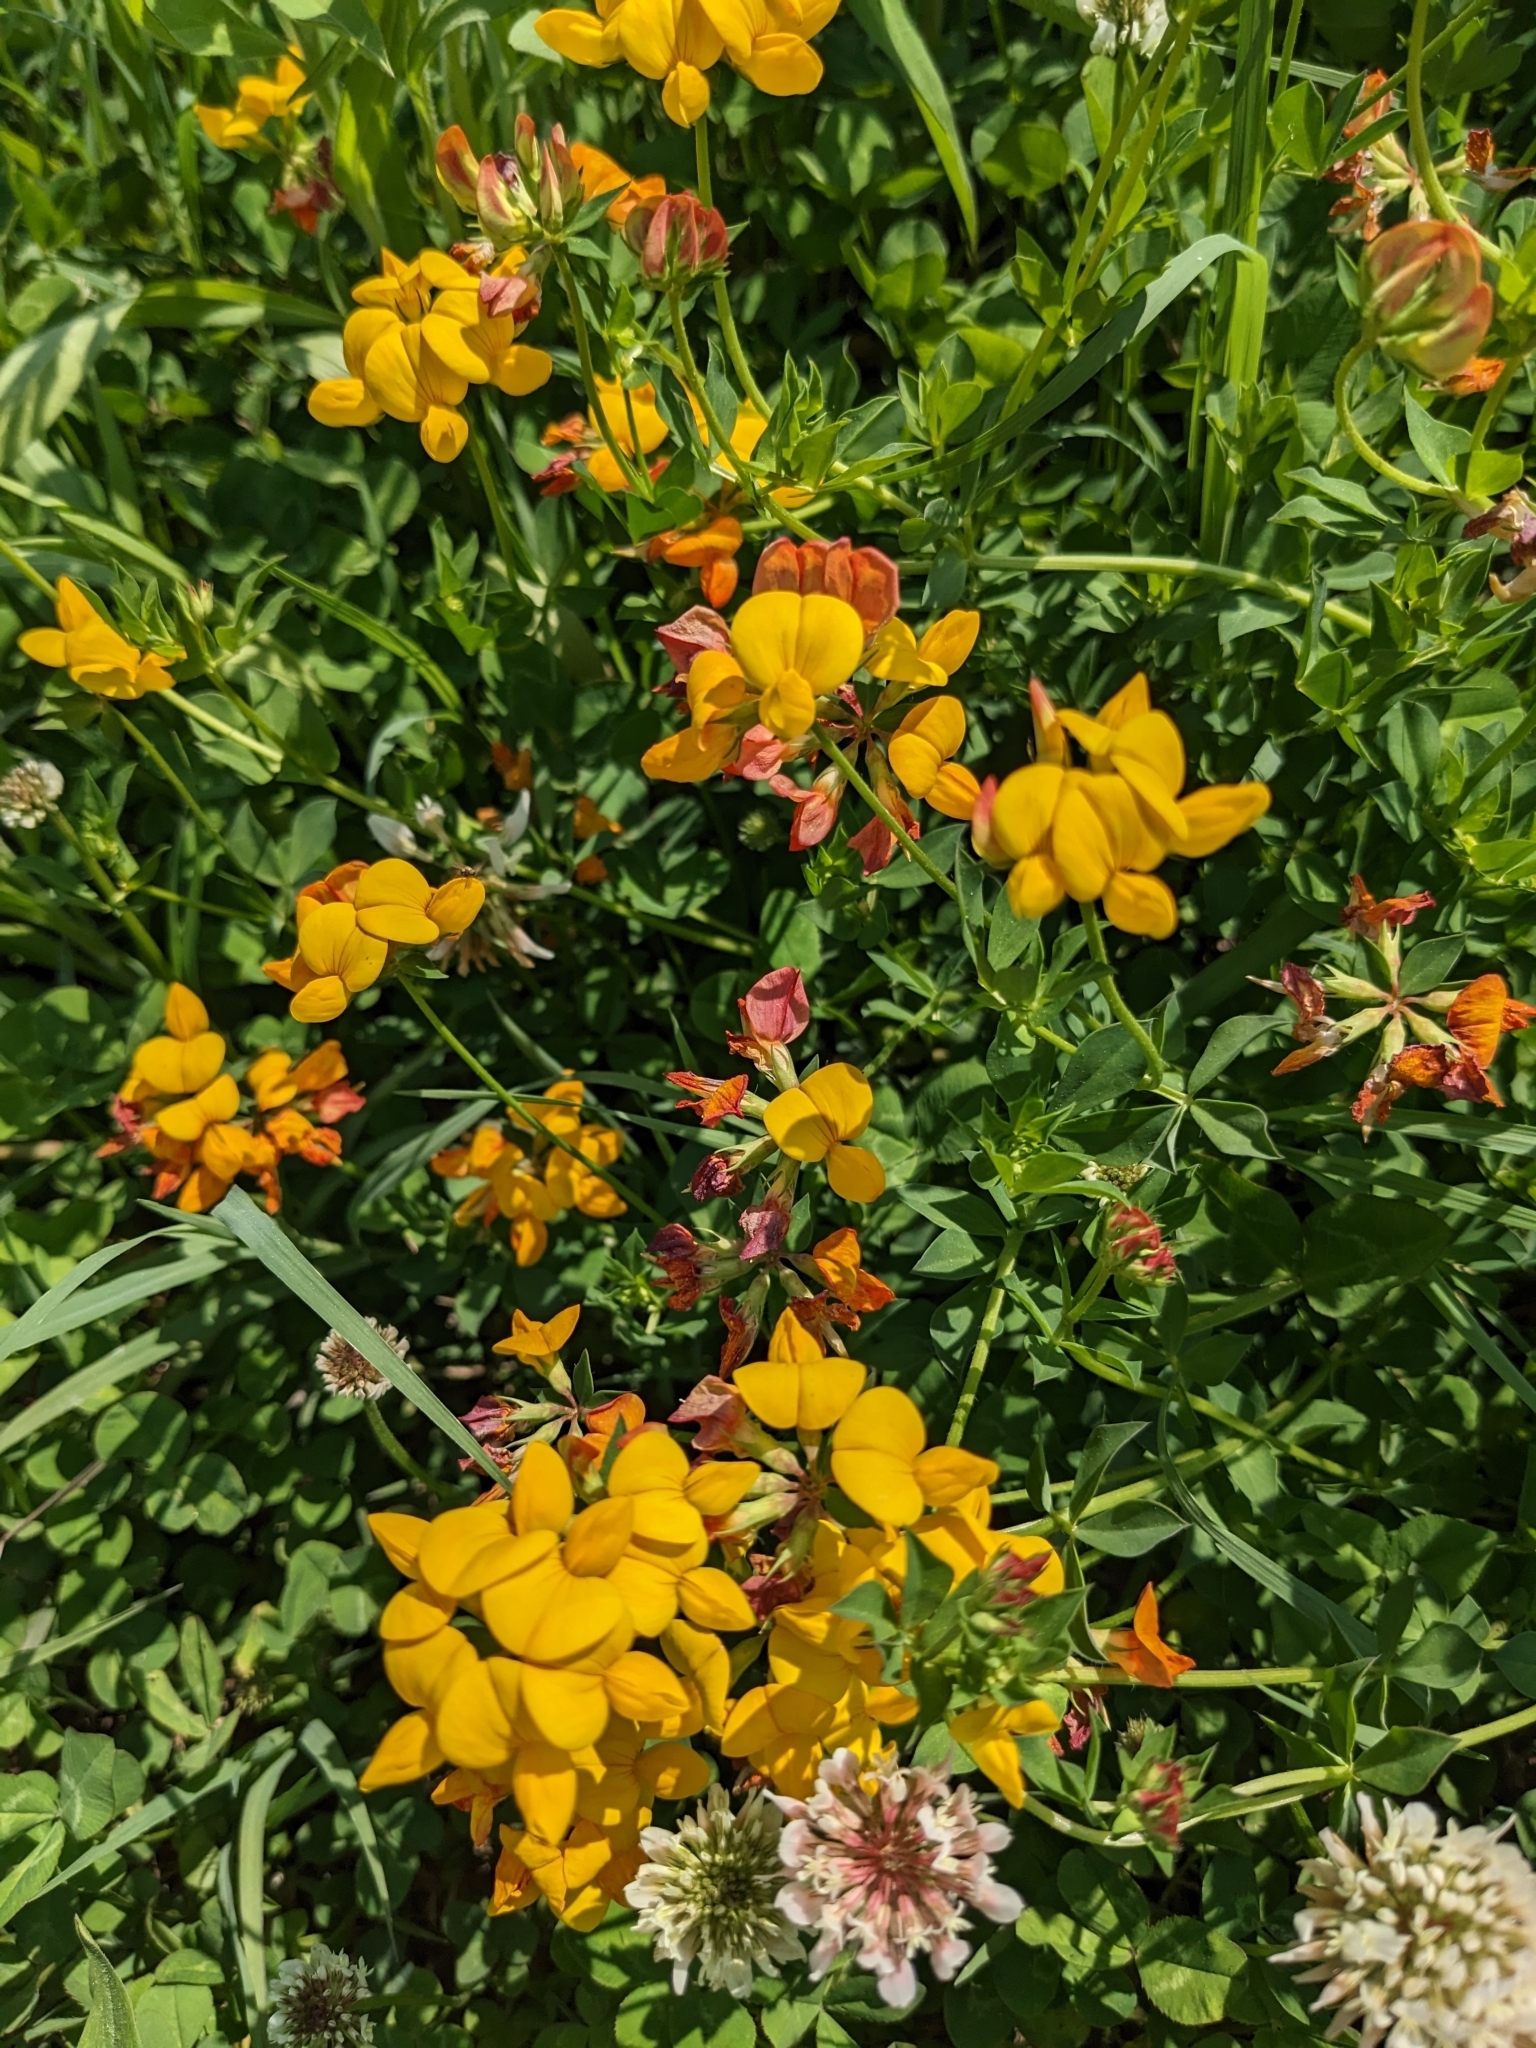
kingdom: Plantae
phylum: Tracheophyta
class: Magnoliopsida
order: Fabales
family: Fabaceae
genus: Lotus
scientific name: Lotus corniculatus
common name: Common bird's-foot-trefoil
